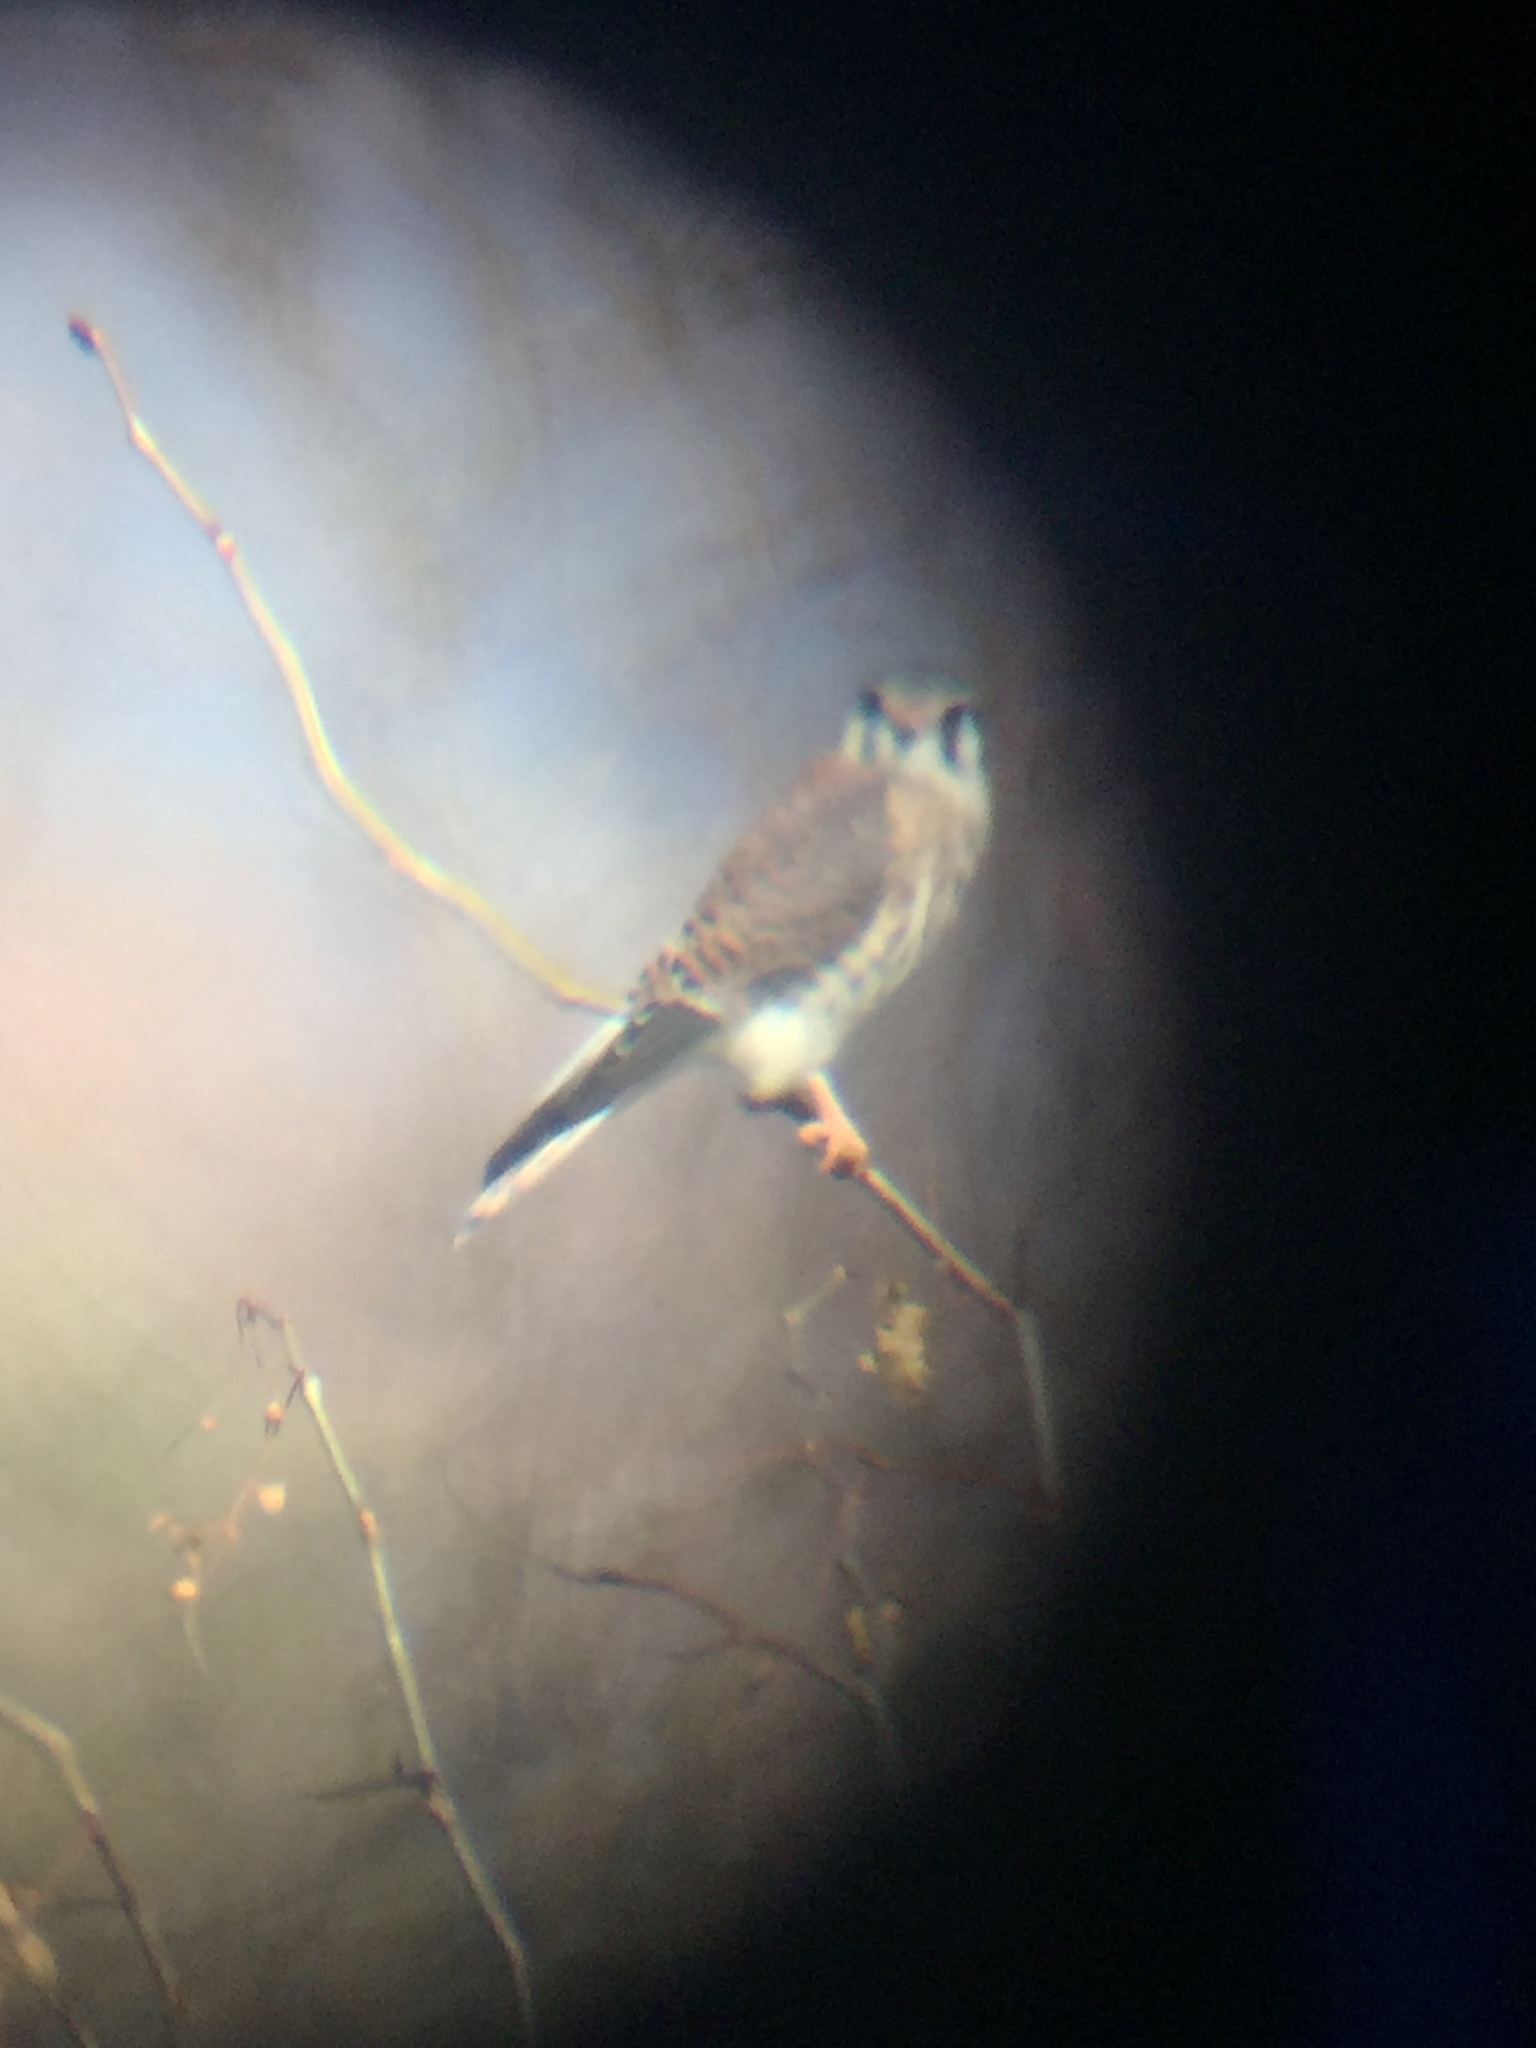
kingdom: Animalia
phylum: Chordata
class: Aves
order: Falconiformes
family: Falconidae
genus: Falco
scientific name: Falco sparverius
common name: American kestrel
